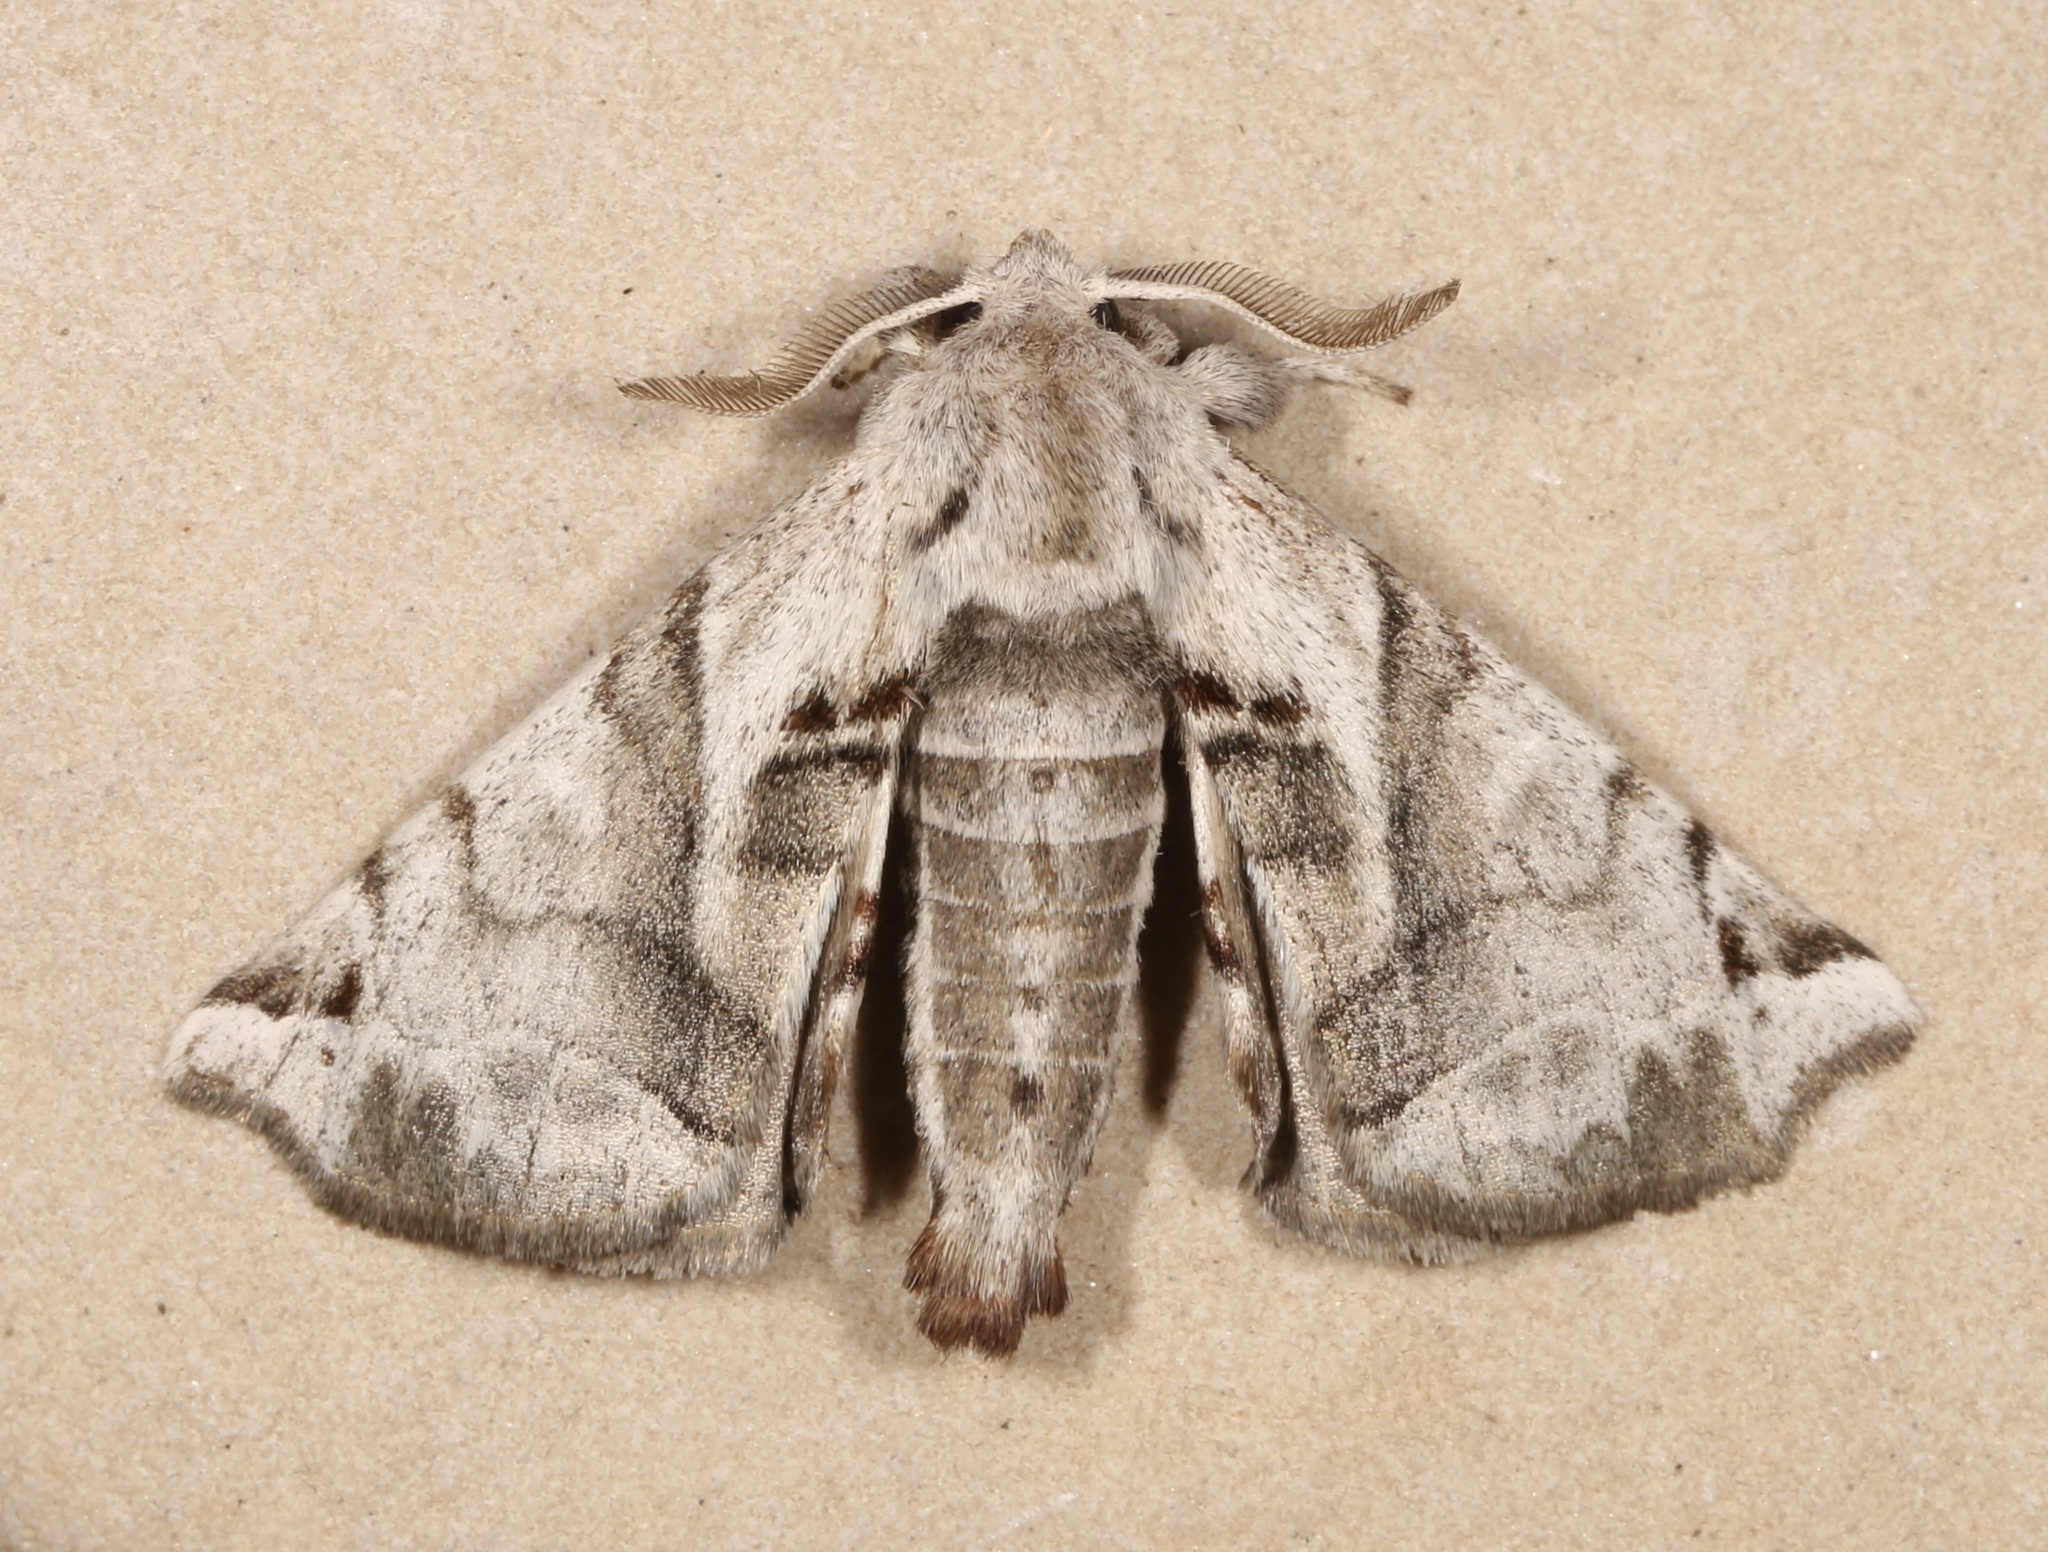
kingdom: Animalia
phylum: Arthropoda
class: Insecta
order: Lepidoptera
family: Apatelodidae
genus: Hygrochroa
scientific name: Hygrochroa Apatelodes pudefacta
